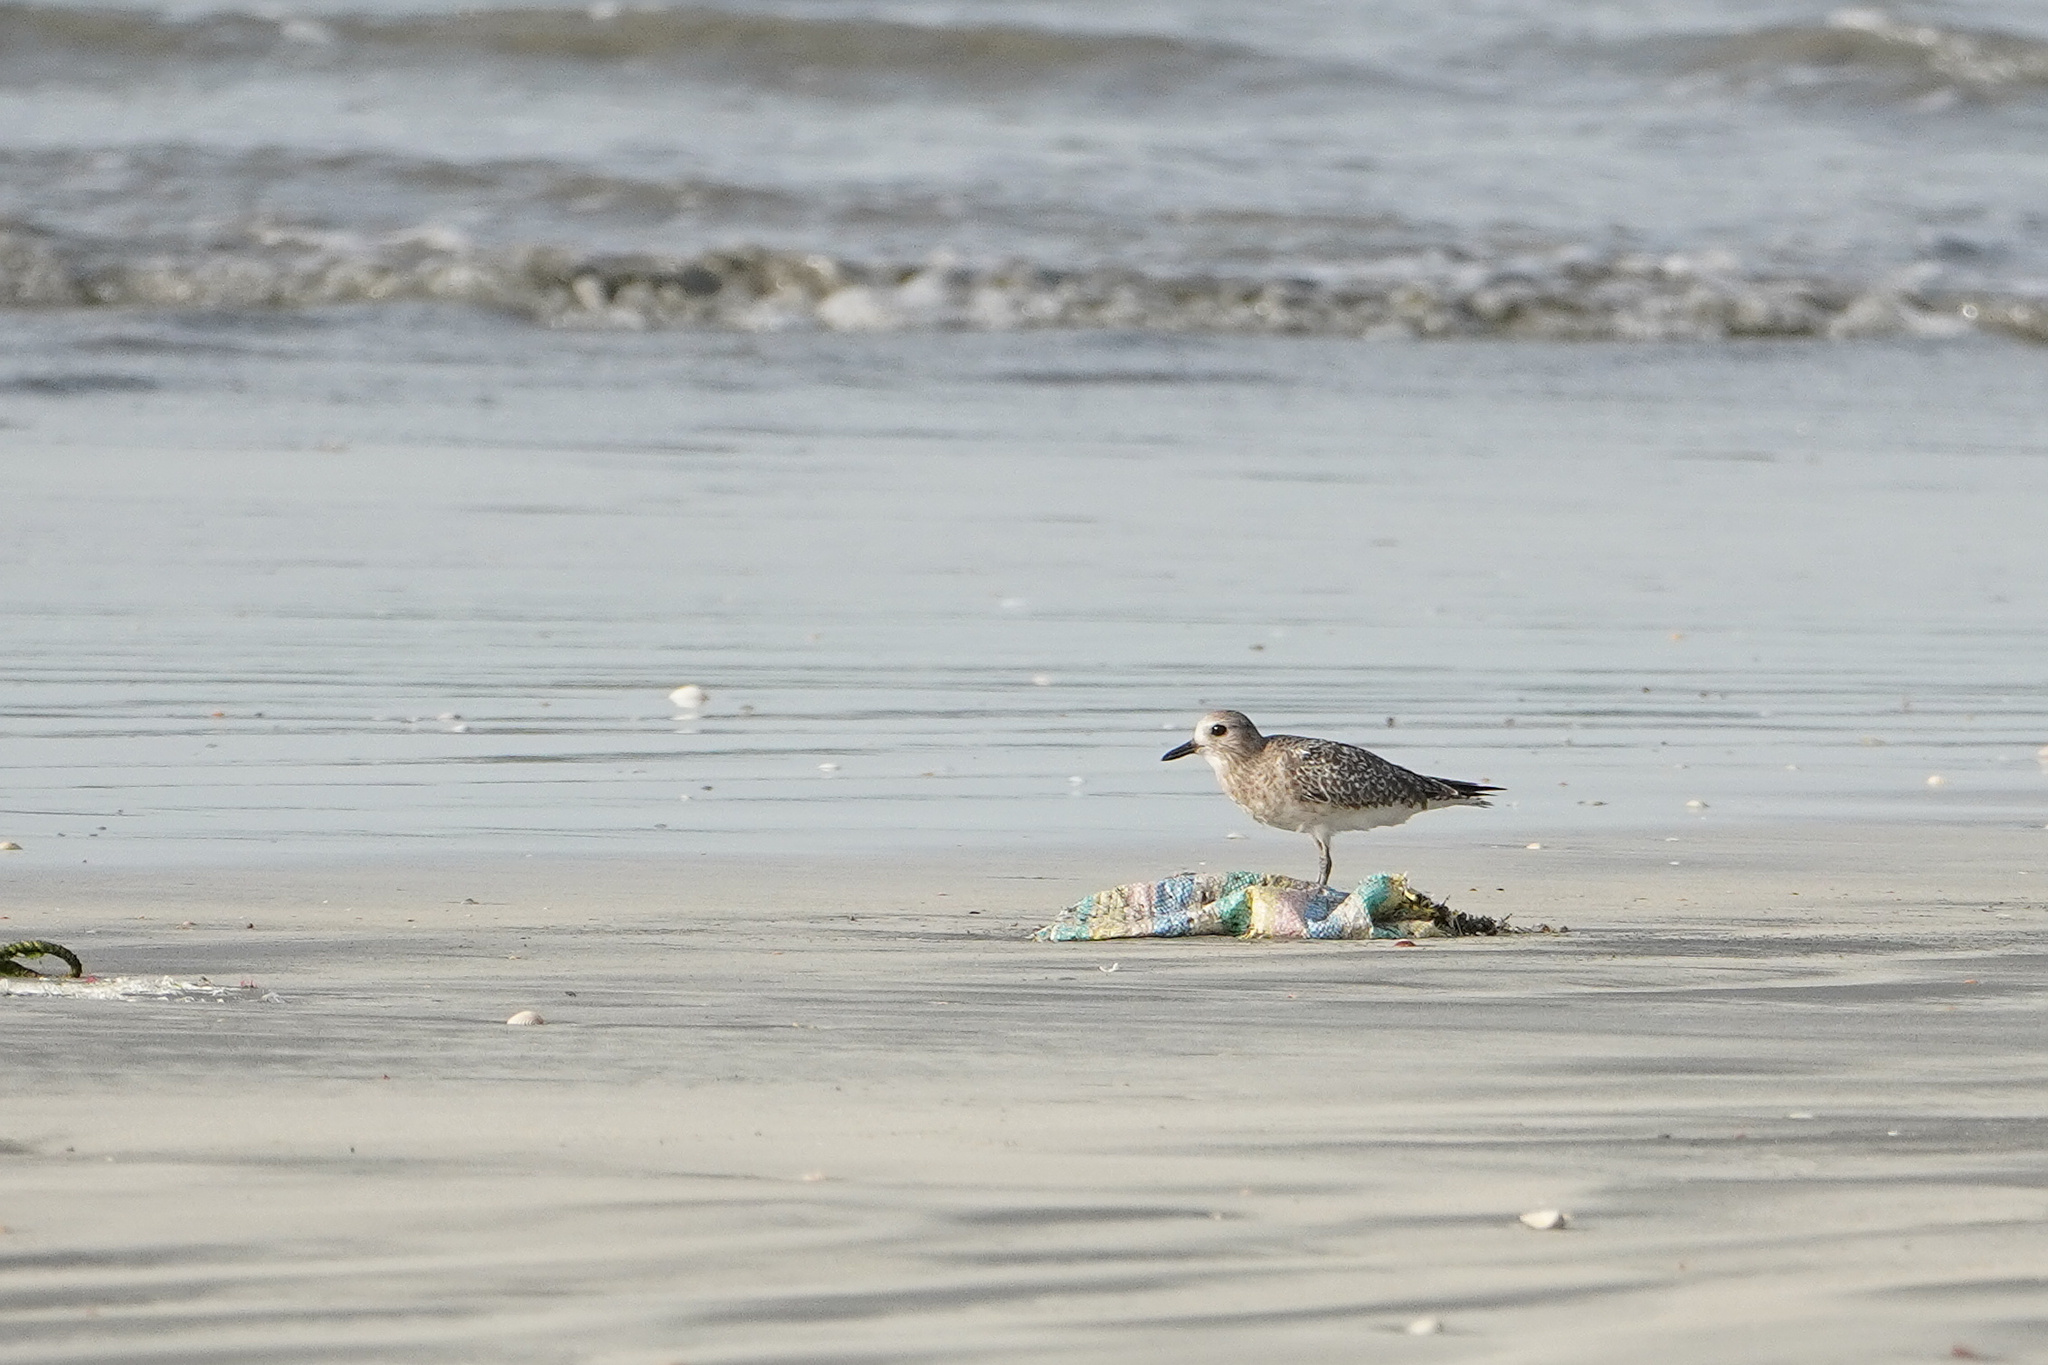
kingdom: Animalia
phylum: Chordata
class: Aves
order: Charadriiformes
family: Charadriidae
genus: Pluvialis
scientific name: Pluvialis squatarola
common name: Grey plover
